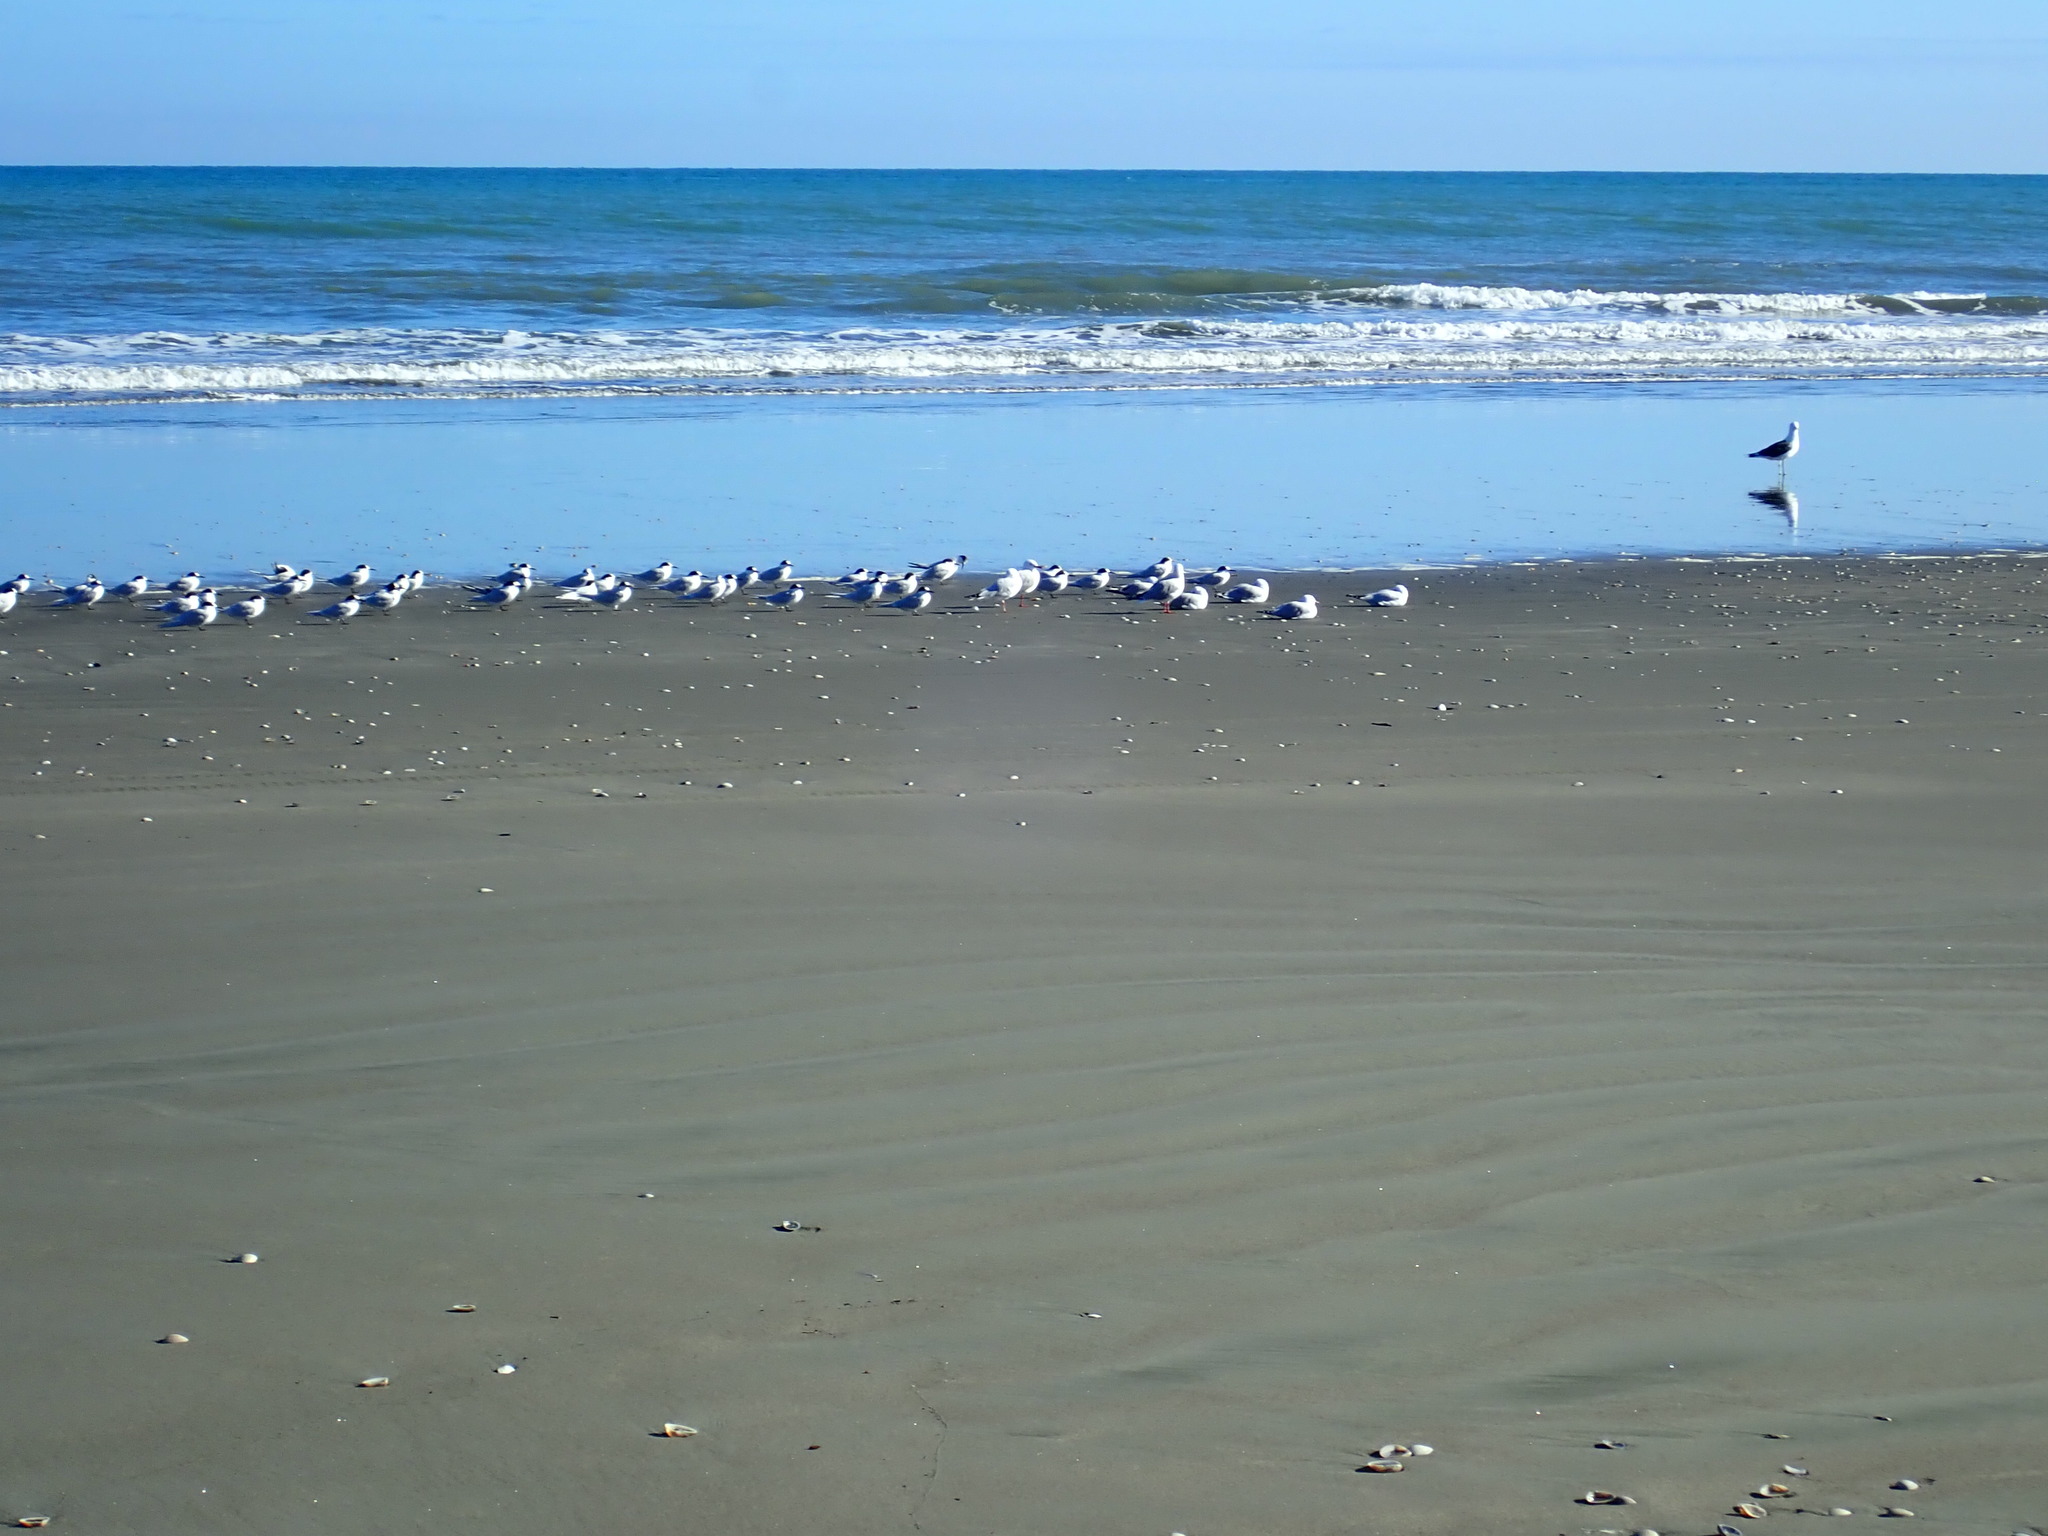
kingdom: Animalia
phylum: Chordata
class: Aves
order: Charadriiformes
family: Laridae
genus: Sterna
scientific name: Sterna striata
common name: White-fronted tern
